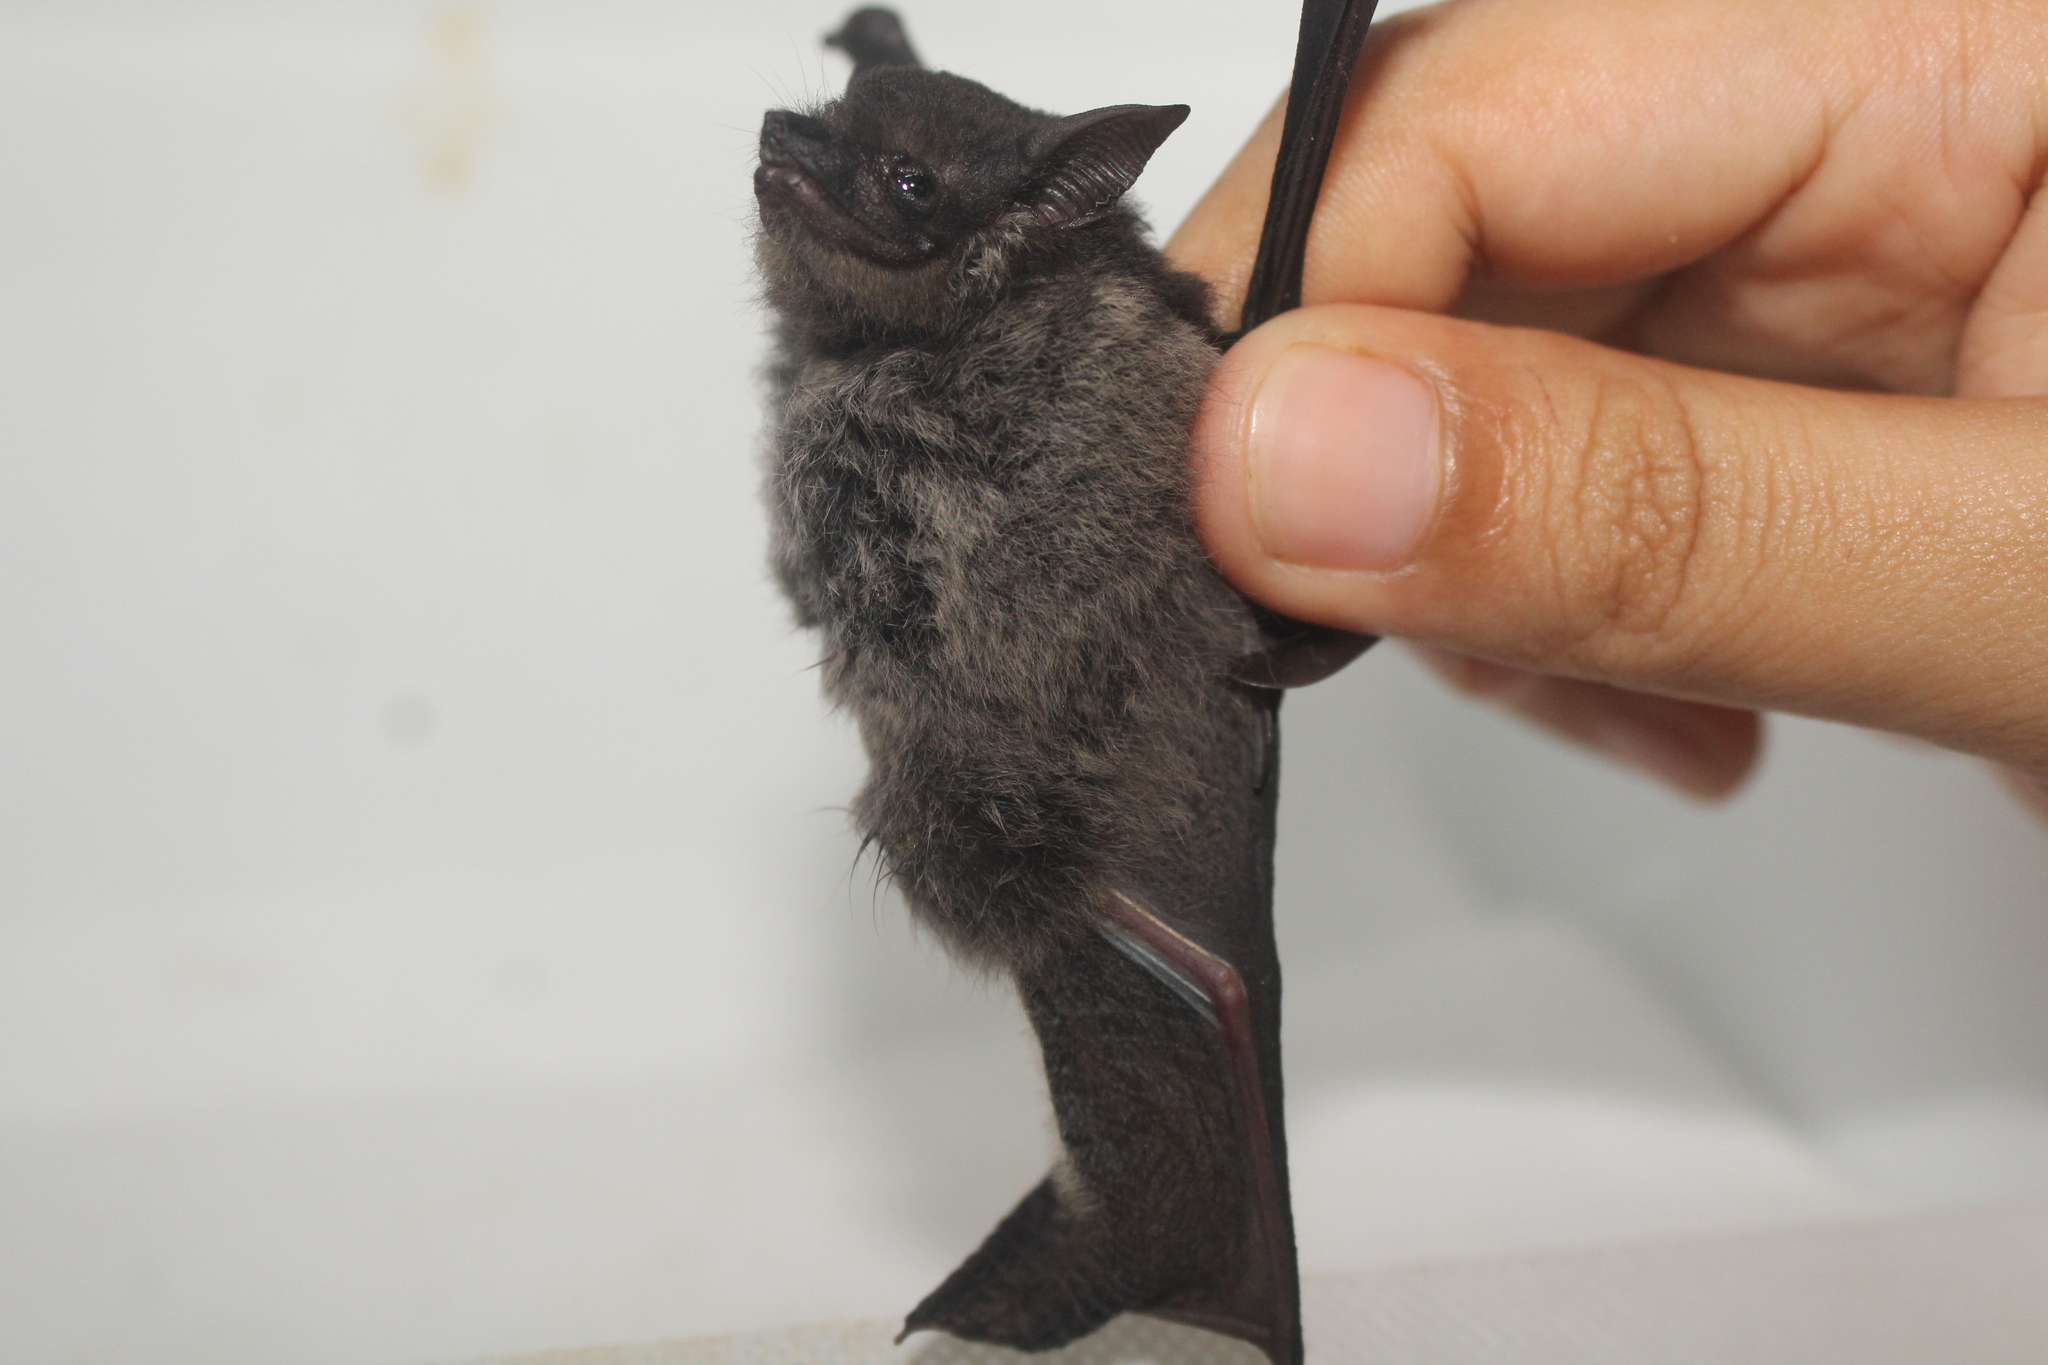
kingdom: Animalia
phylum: Chordata
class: Mammalia
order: Chiroptera
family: Emballonuridae
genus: Saccopteryx
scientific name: Saccopteryx bilineata
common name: Greater sac-winged bat
